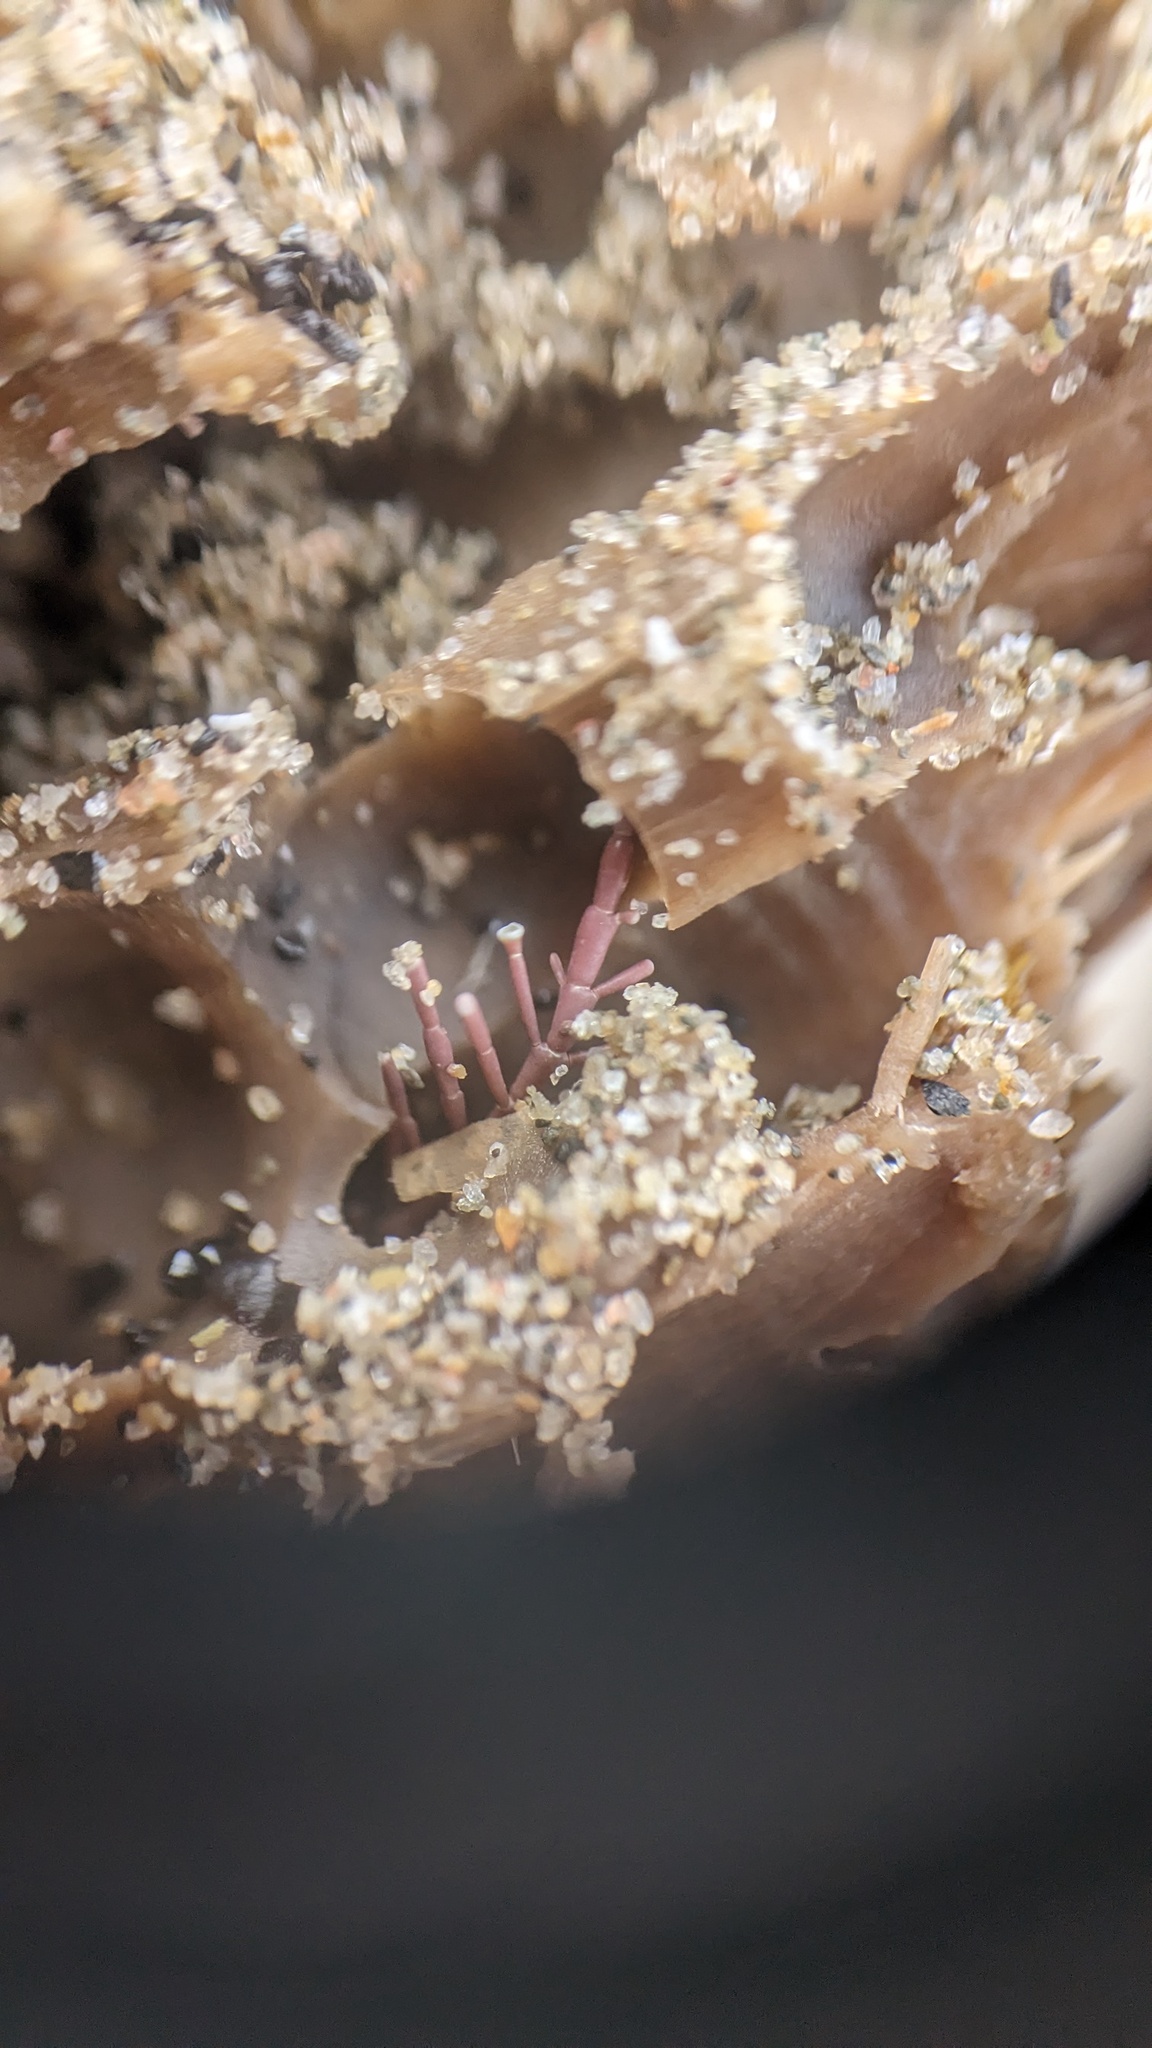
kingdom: Plantae
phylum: Rhodophyta
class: Florideophyceae
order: Corallinales
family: Corallinaceae
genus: Corallina
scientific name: Corallina officinalis
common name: Coral weed
